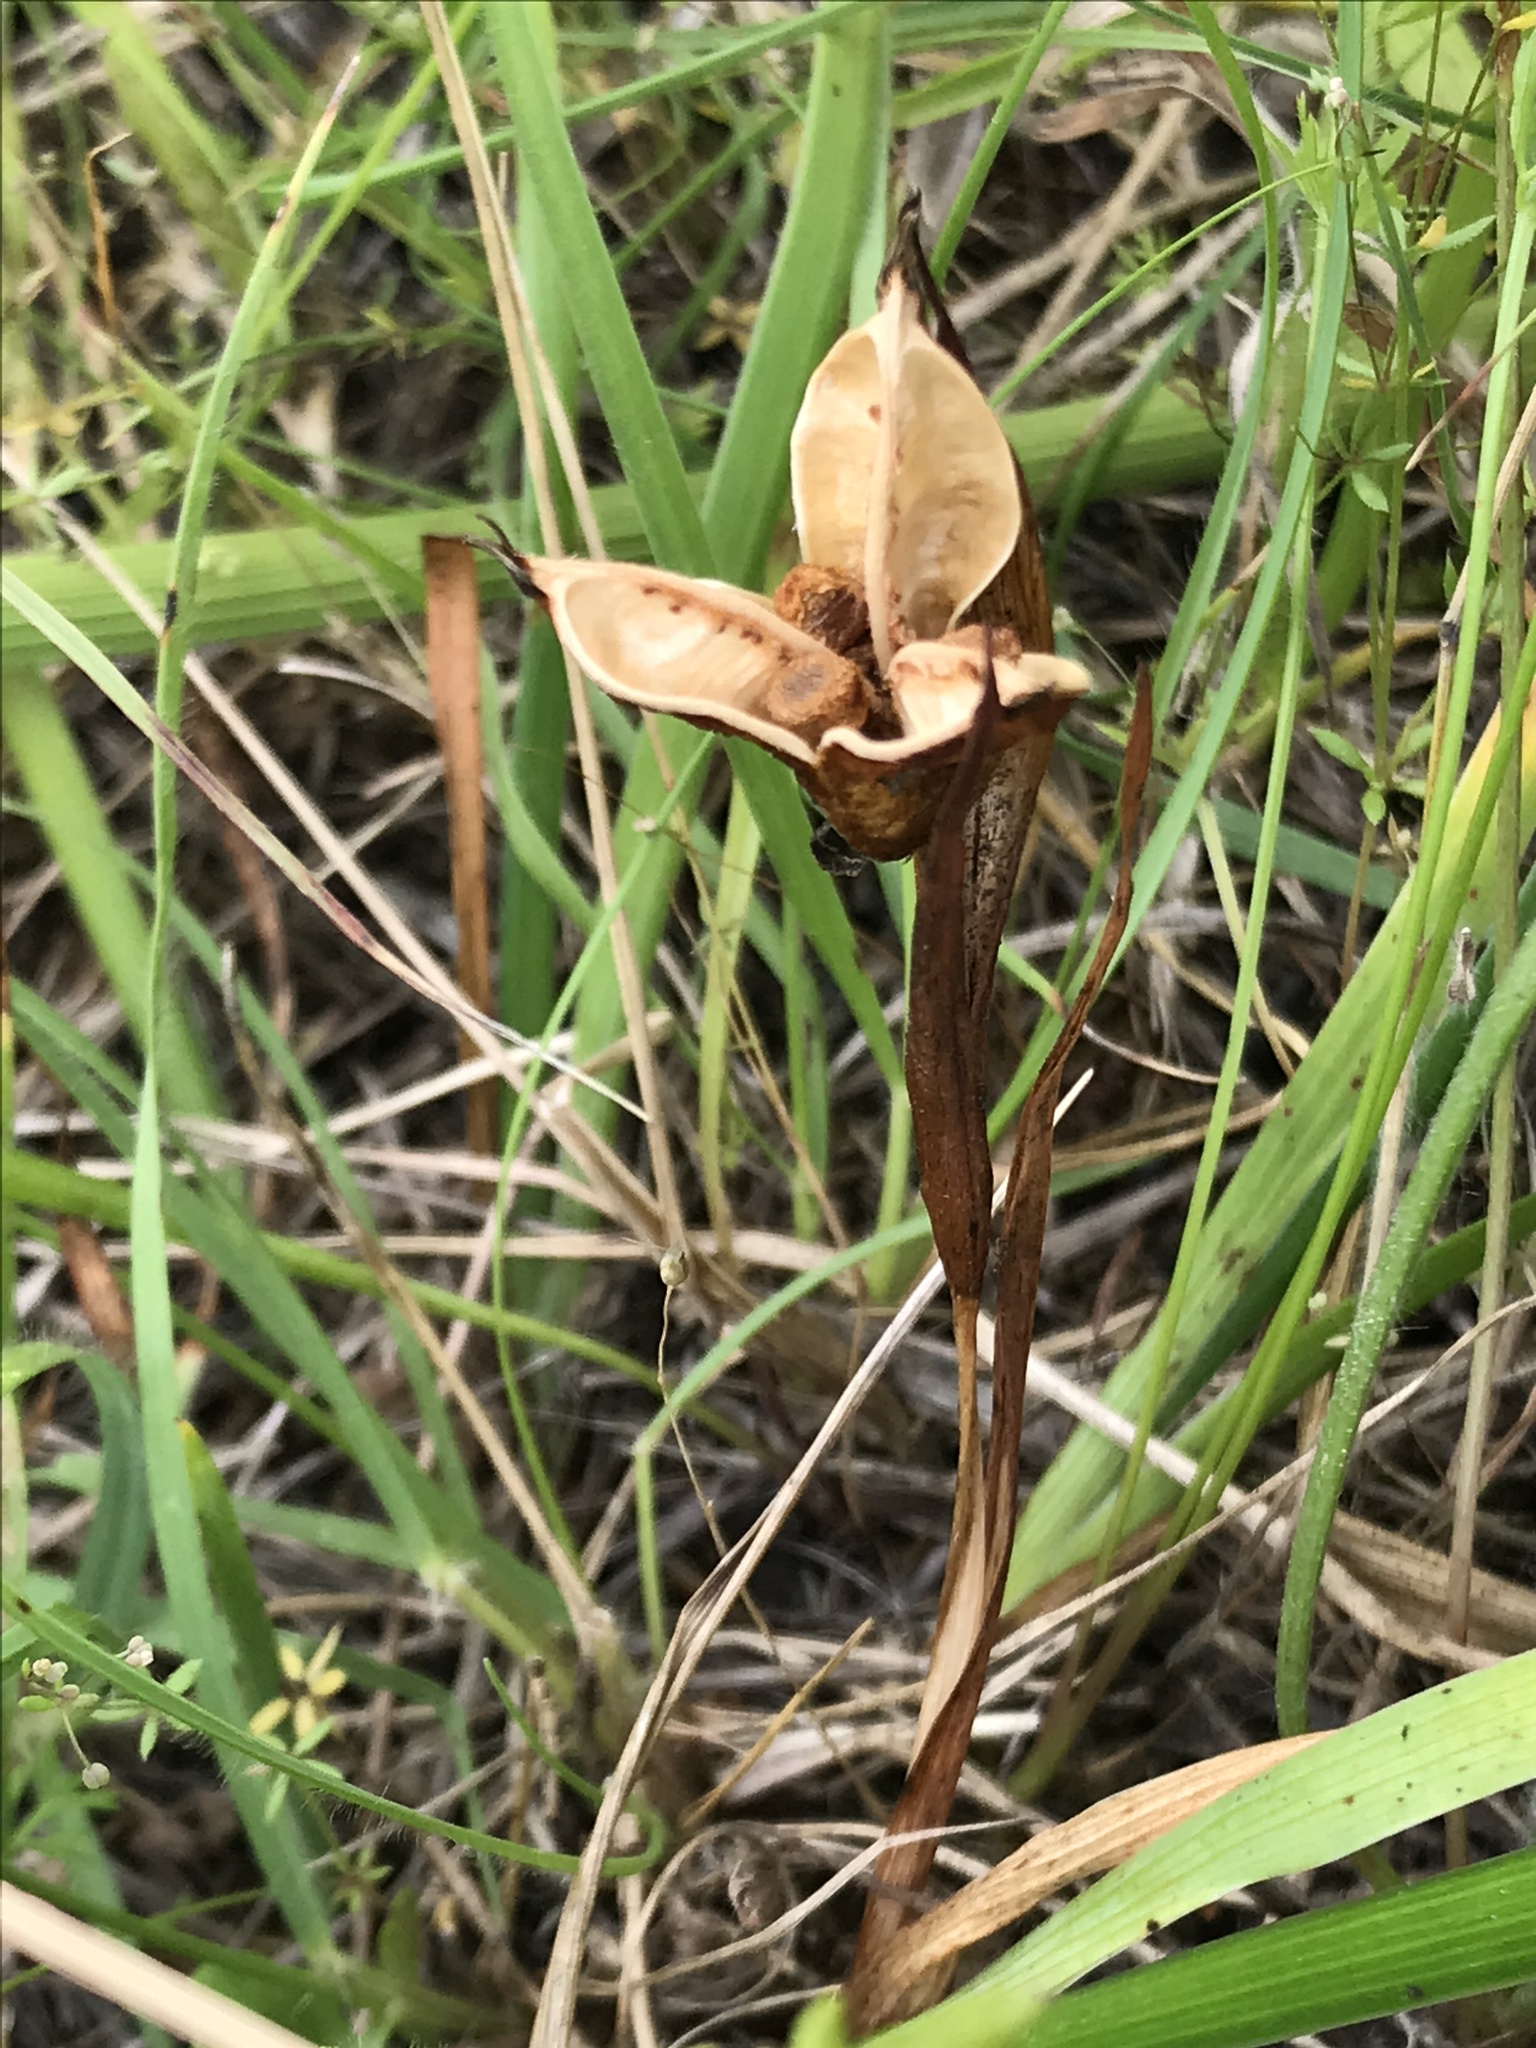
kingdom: Plantae
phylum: Tracheophyta
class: Liliopsida
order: Asparagales
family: Iridaceae
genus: Iris
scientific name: Iris tenax
